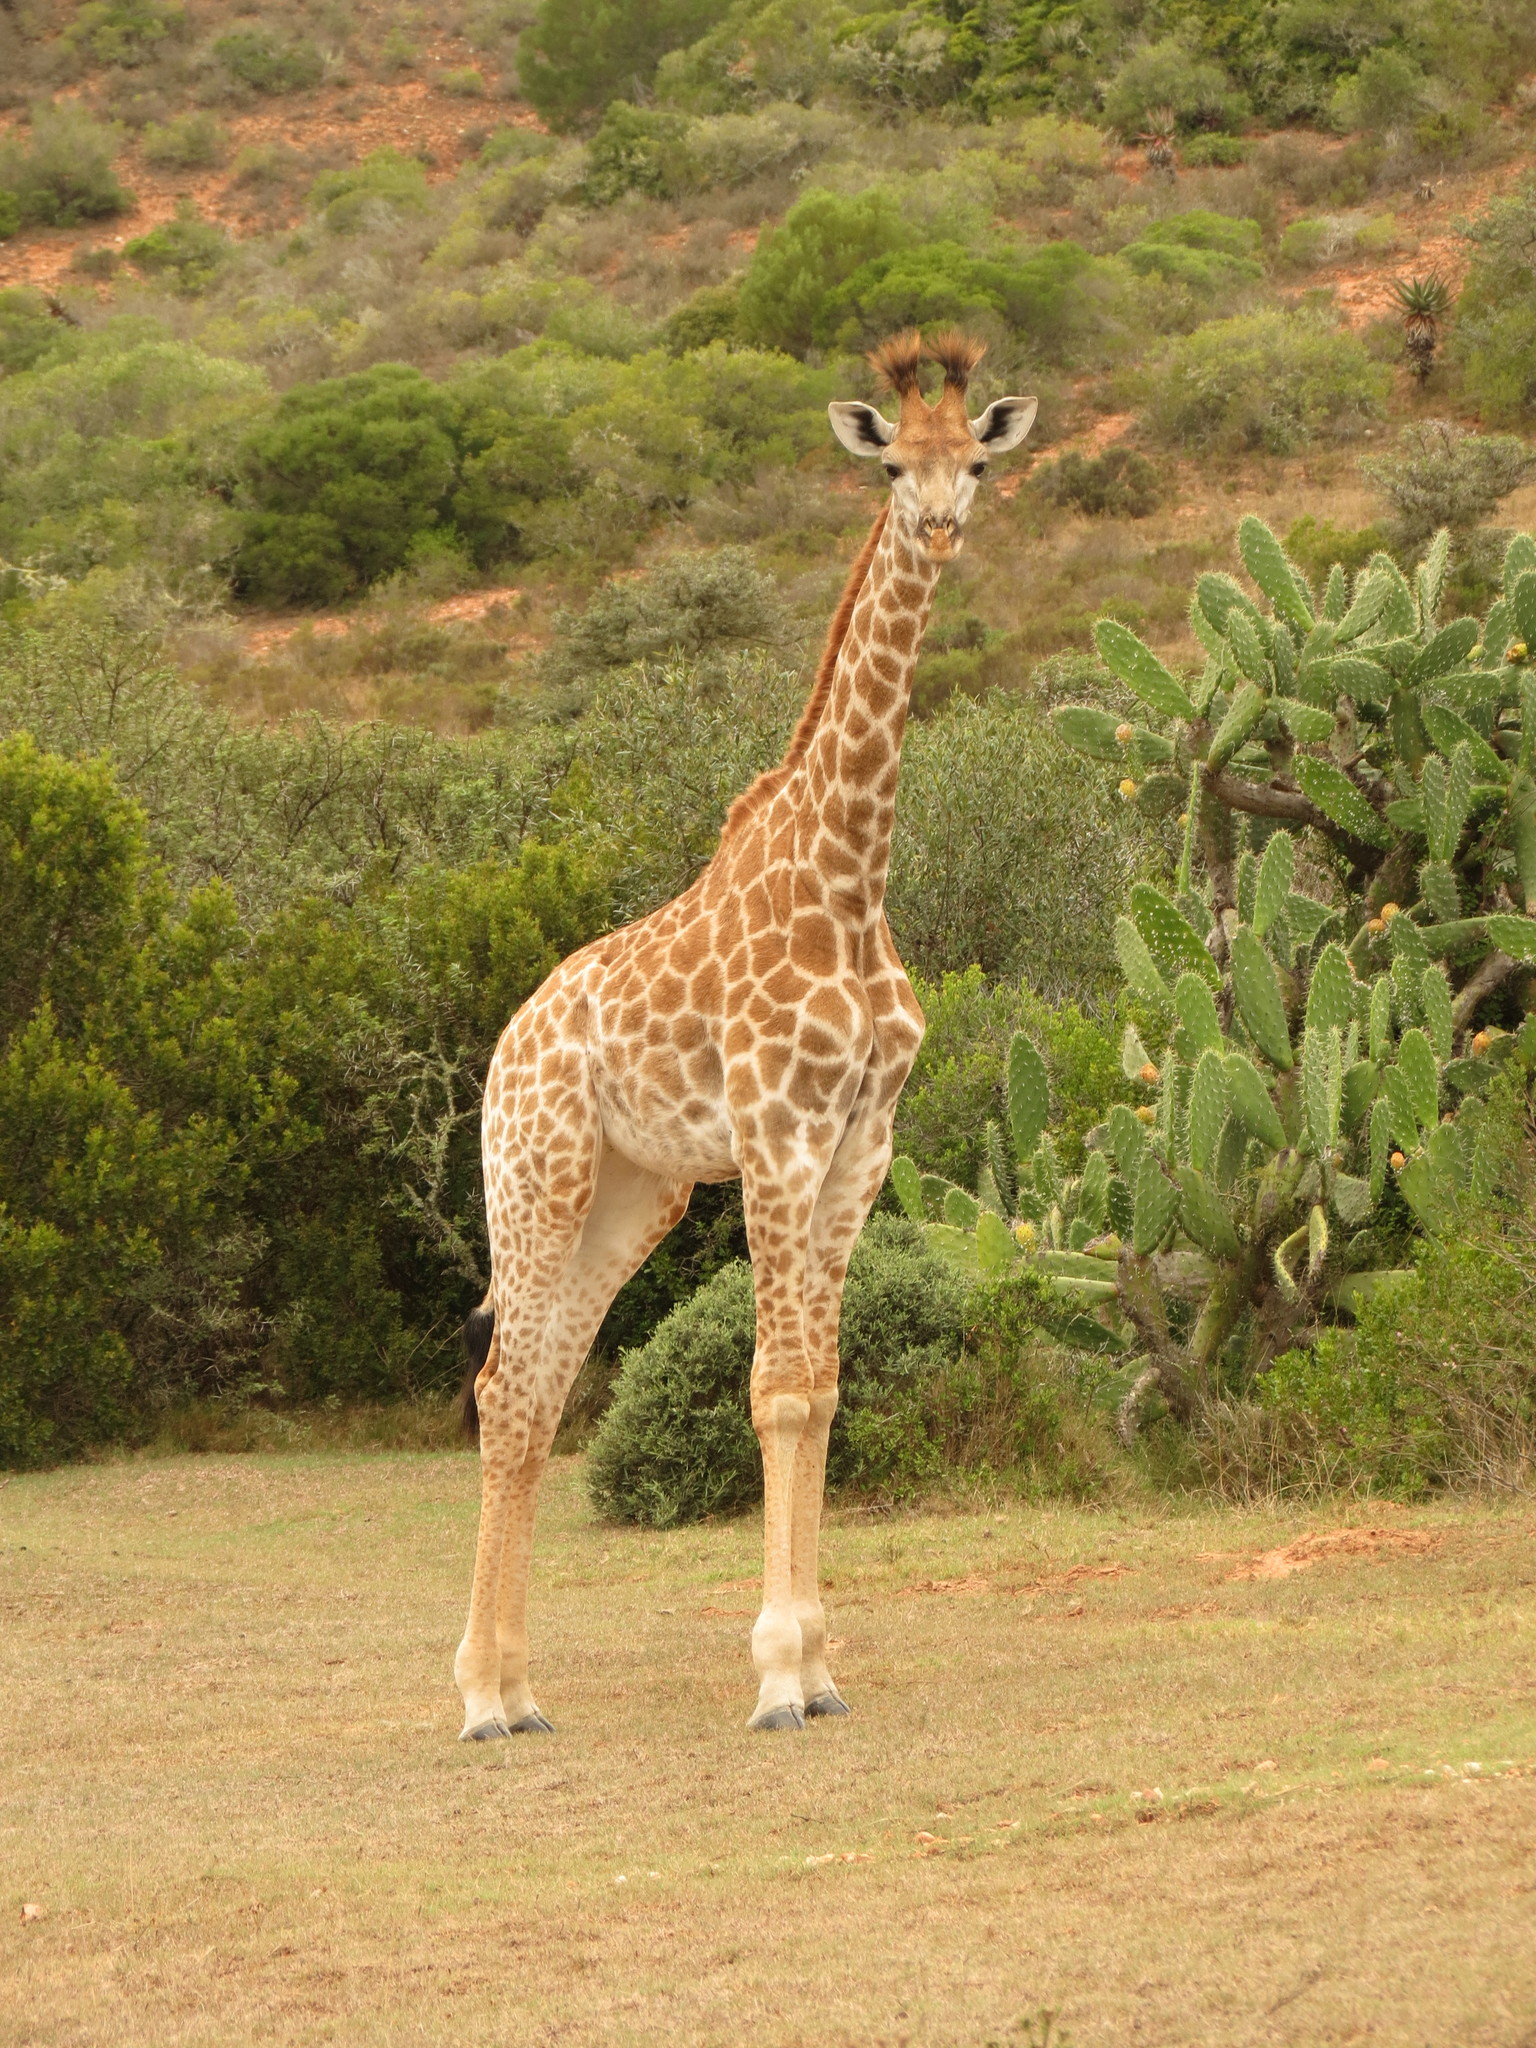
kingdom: Animalia
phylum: Chordata
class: Mammalia
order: Artiodactyla
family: Giraffidae
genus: Giraffa
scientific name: Giraffa giraffa
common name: Southern giraffe
